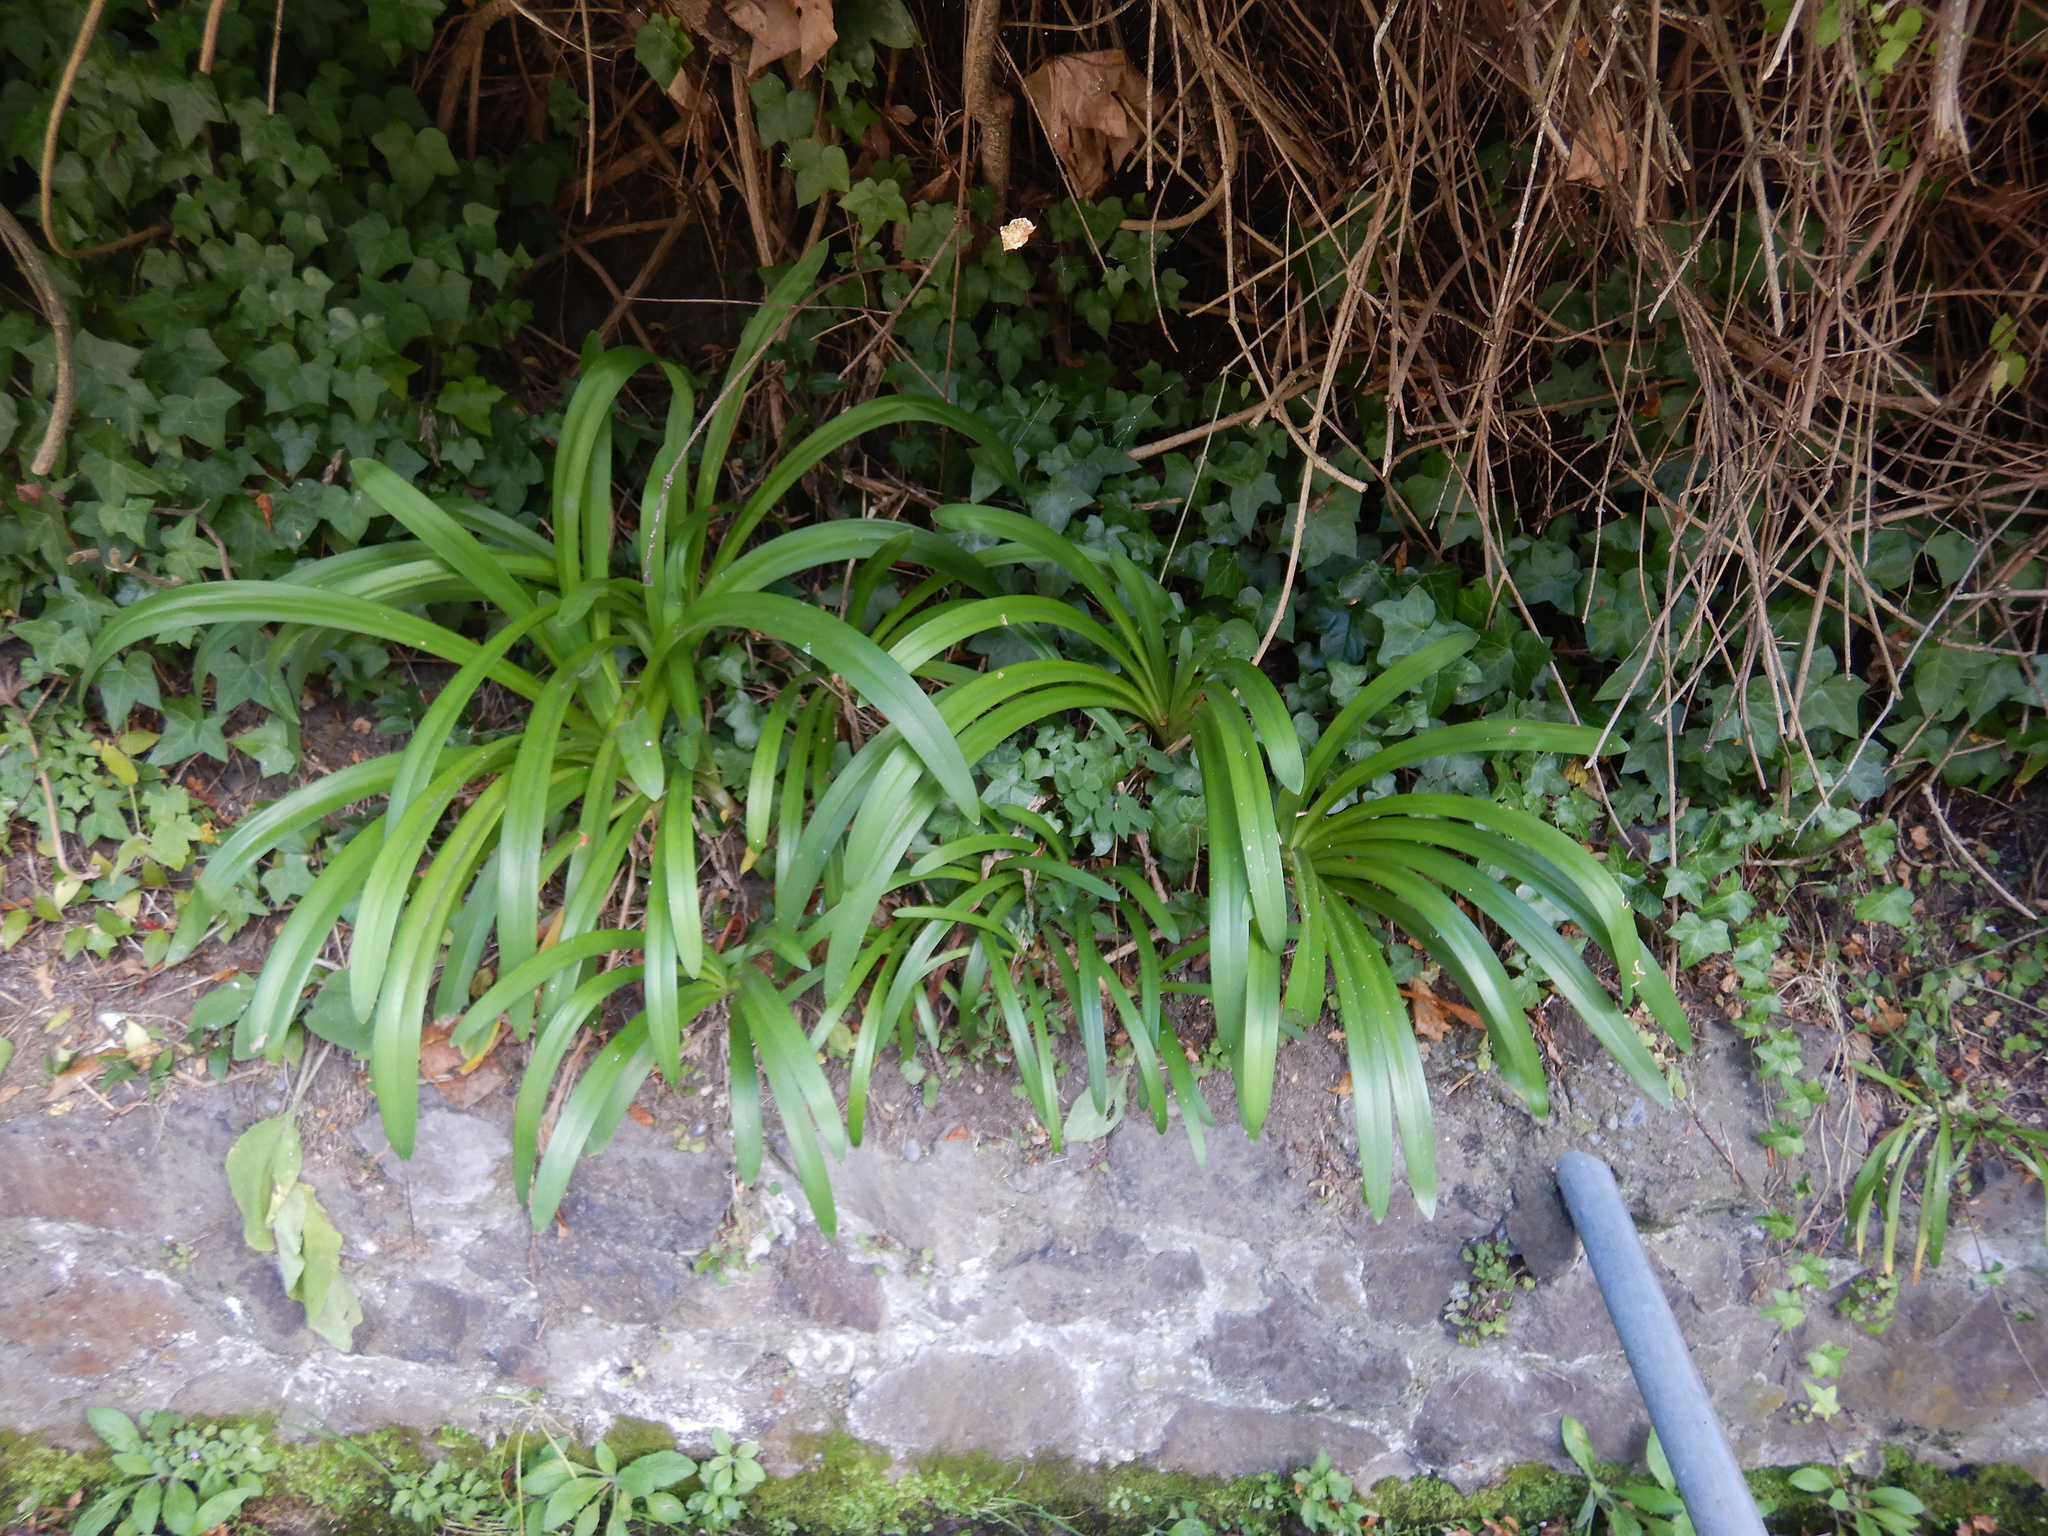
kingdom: Plantae
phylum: Tracheophyta
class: Liliopsida
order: Asparagales
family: Amaryllidaceae
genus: Agapanthus
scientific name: Agapanthus praecox
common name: African-lily
